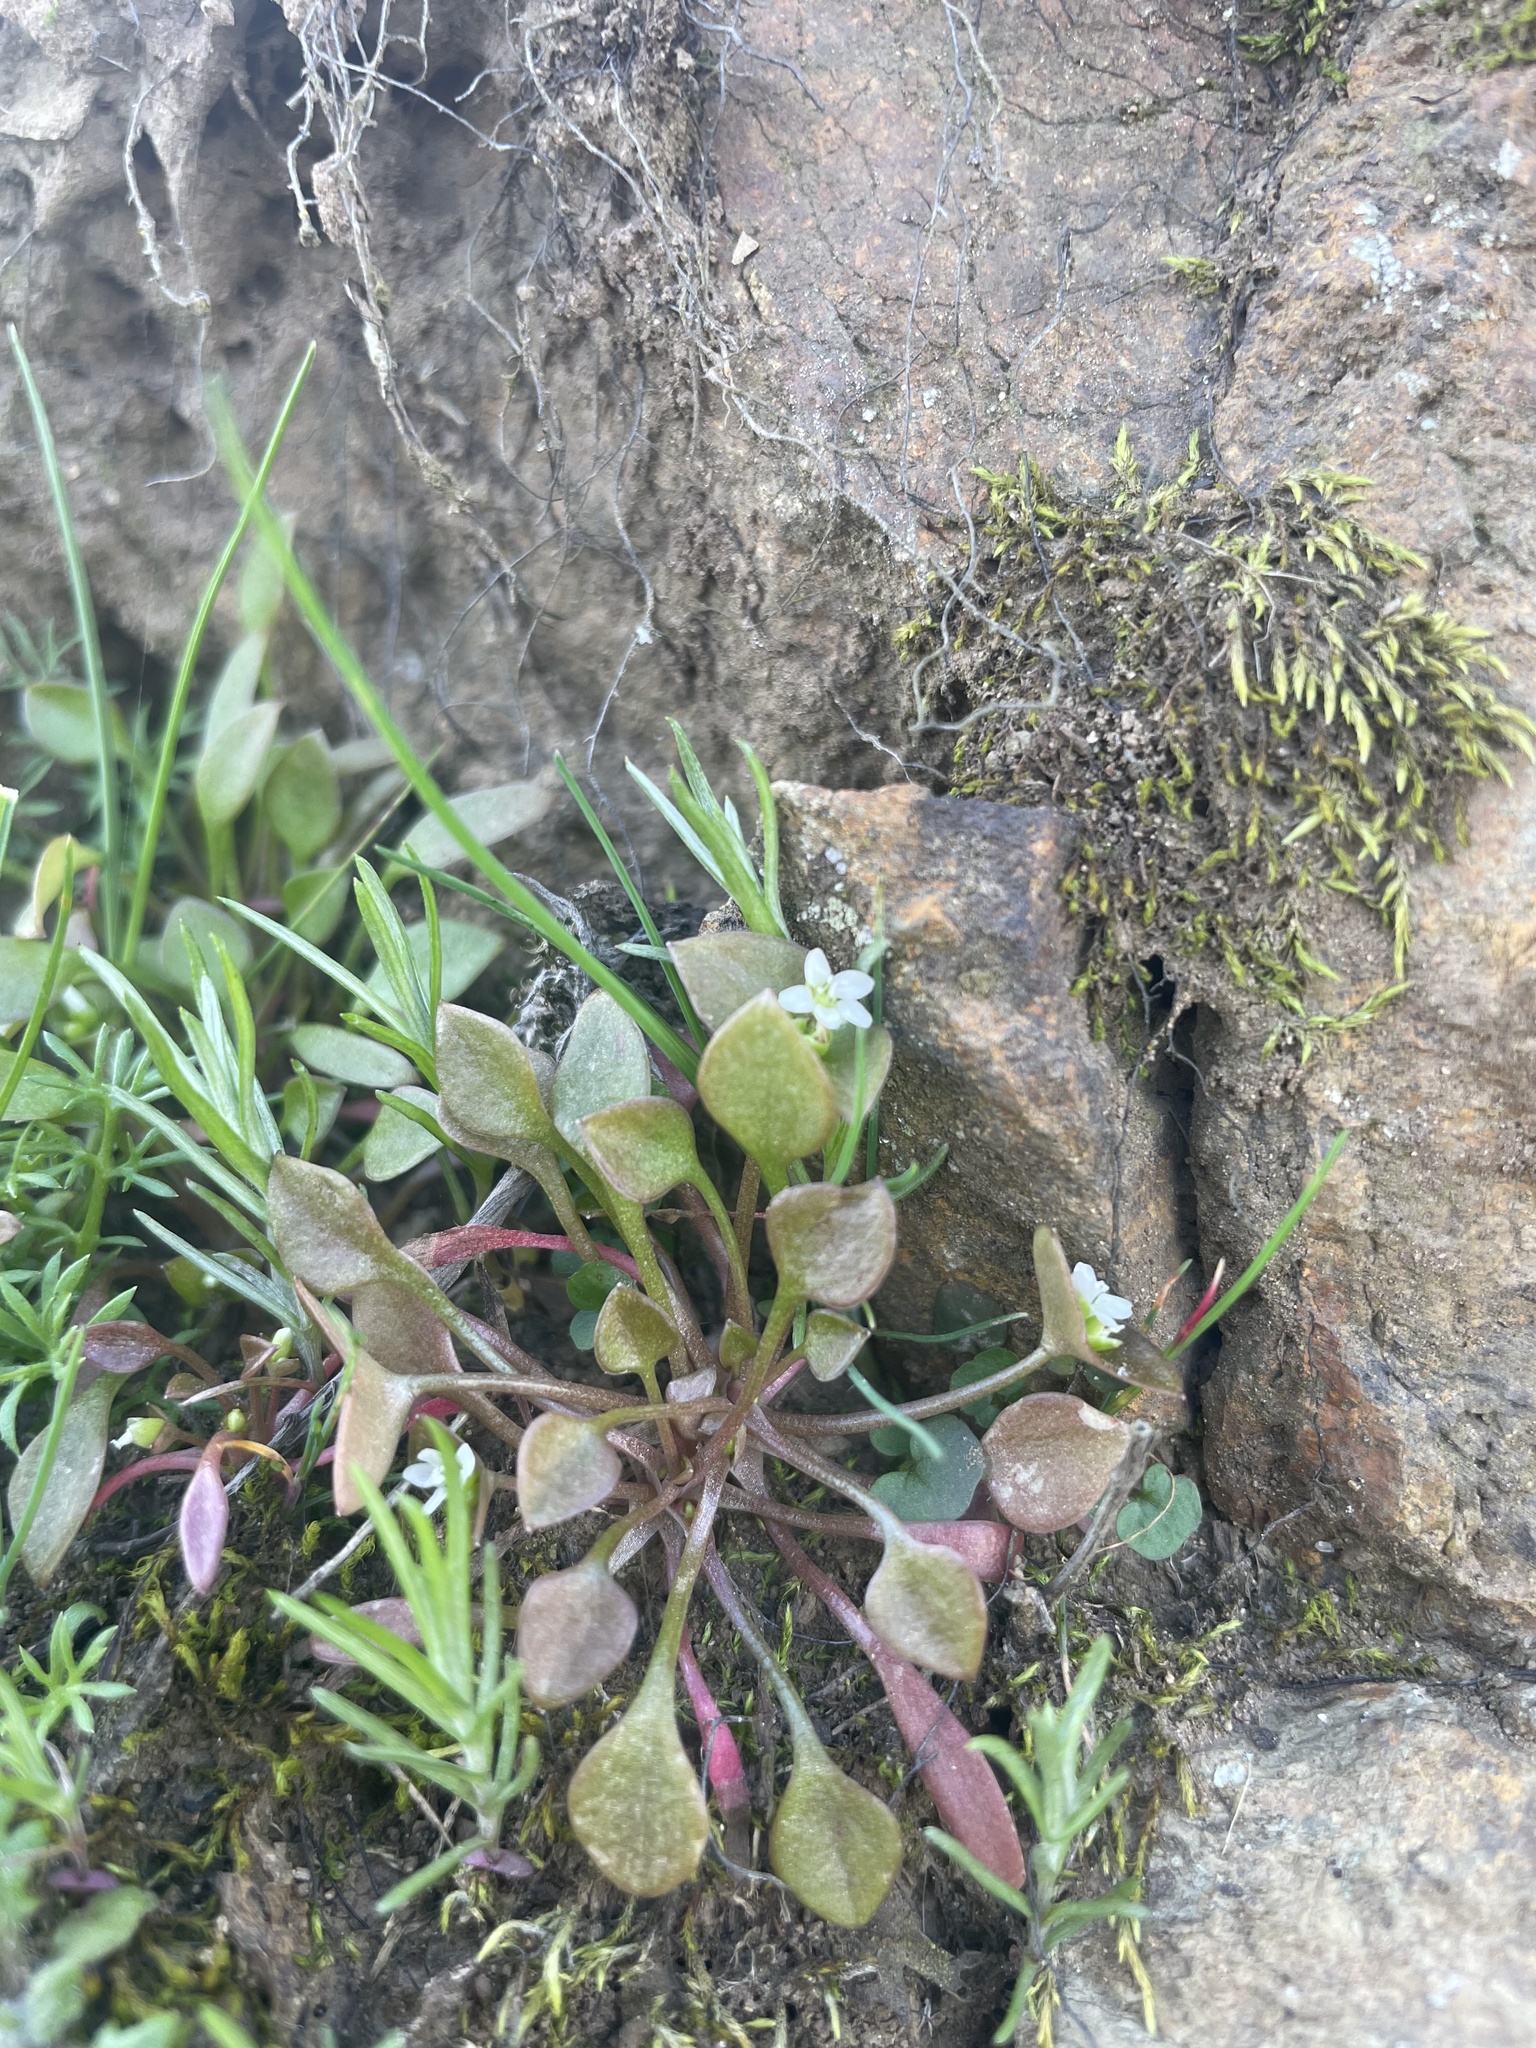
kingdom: Plantae
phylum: Tracheophyta
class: Magnoliopsida
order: Caryophyllales
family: Montiaceae
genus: Claytonia
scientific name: Claytonia rubra
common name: Erubescent miner's-lettuce
